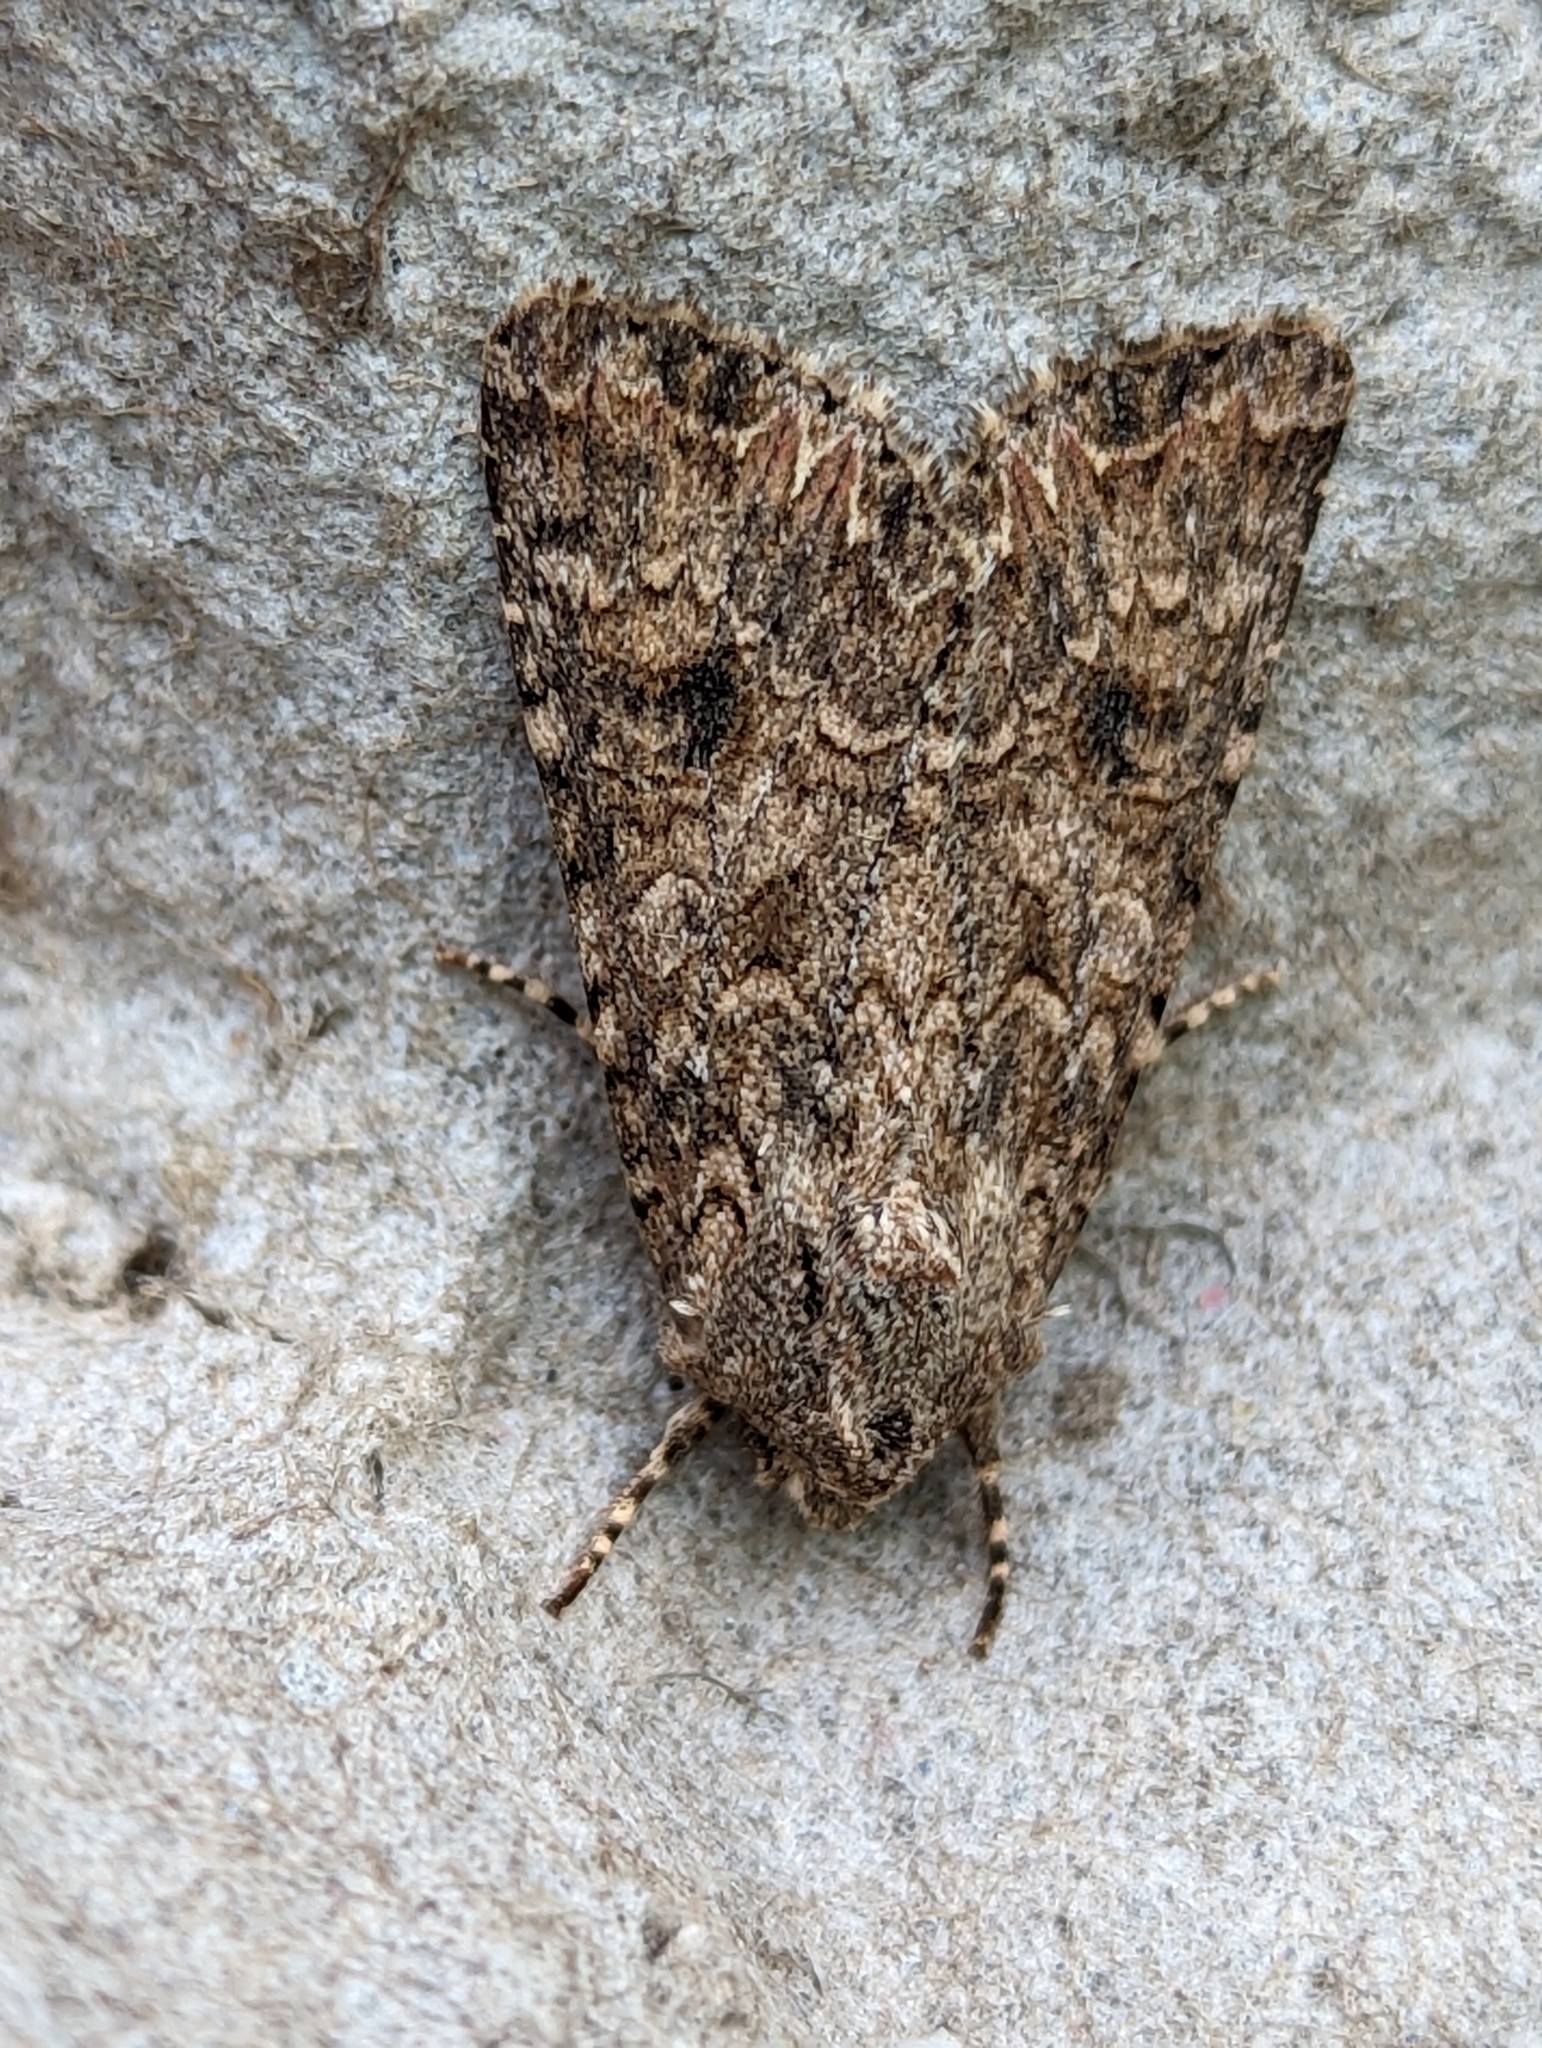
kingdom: Animalia
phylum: Arthropoda
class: Insecta
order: Lepidoptera
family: Noctuidae
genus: Anarta
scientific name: Anarta trifolii
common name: Clover cutworm moth
